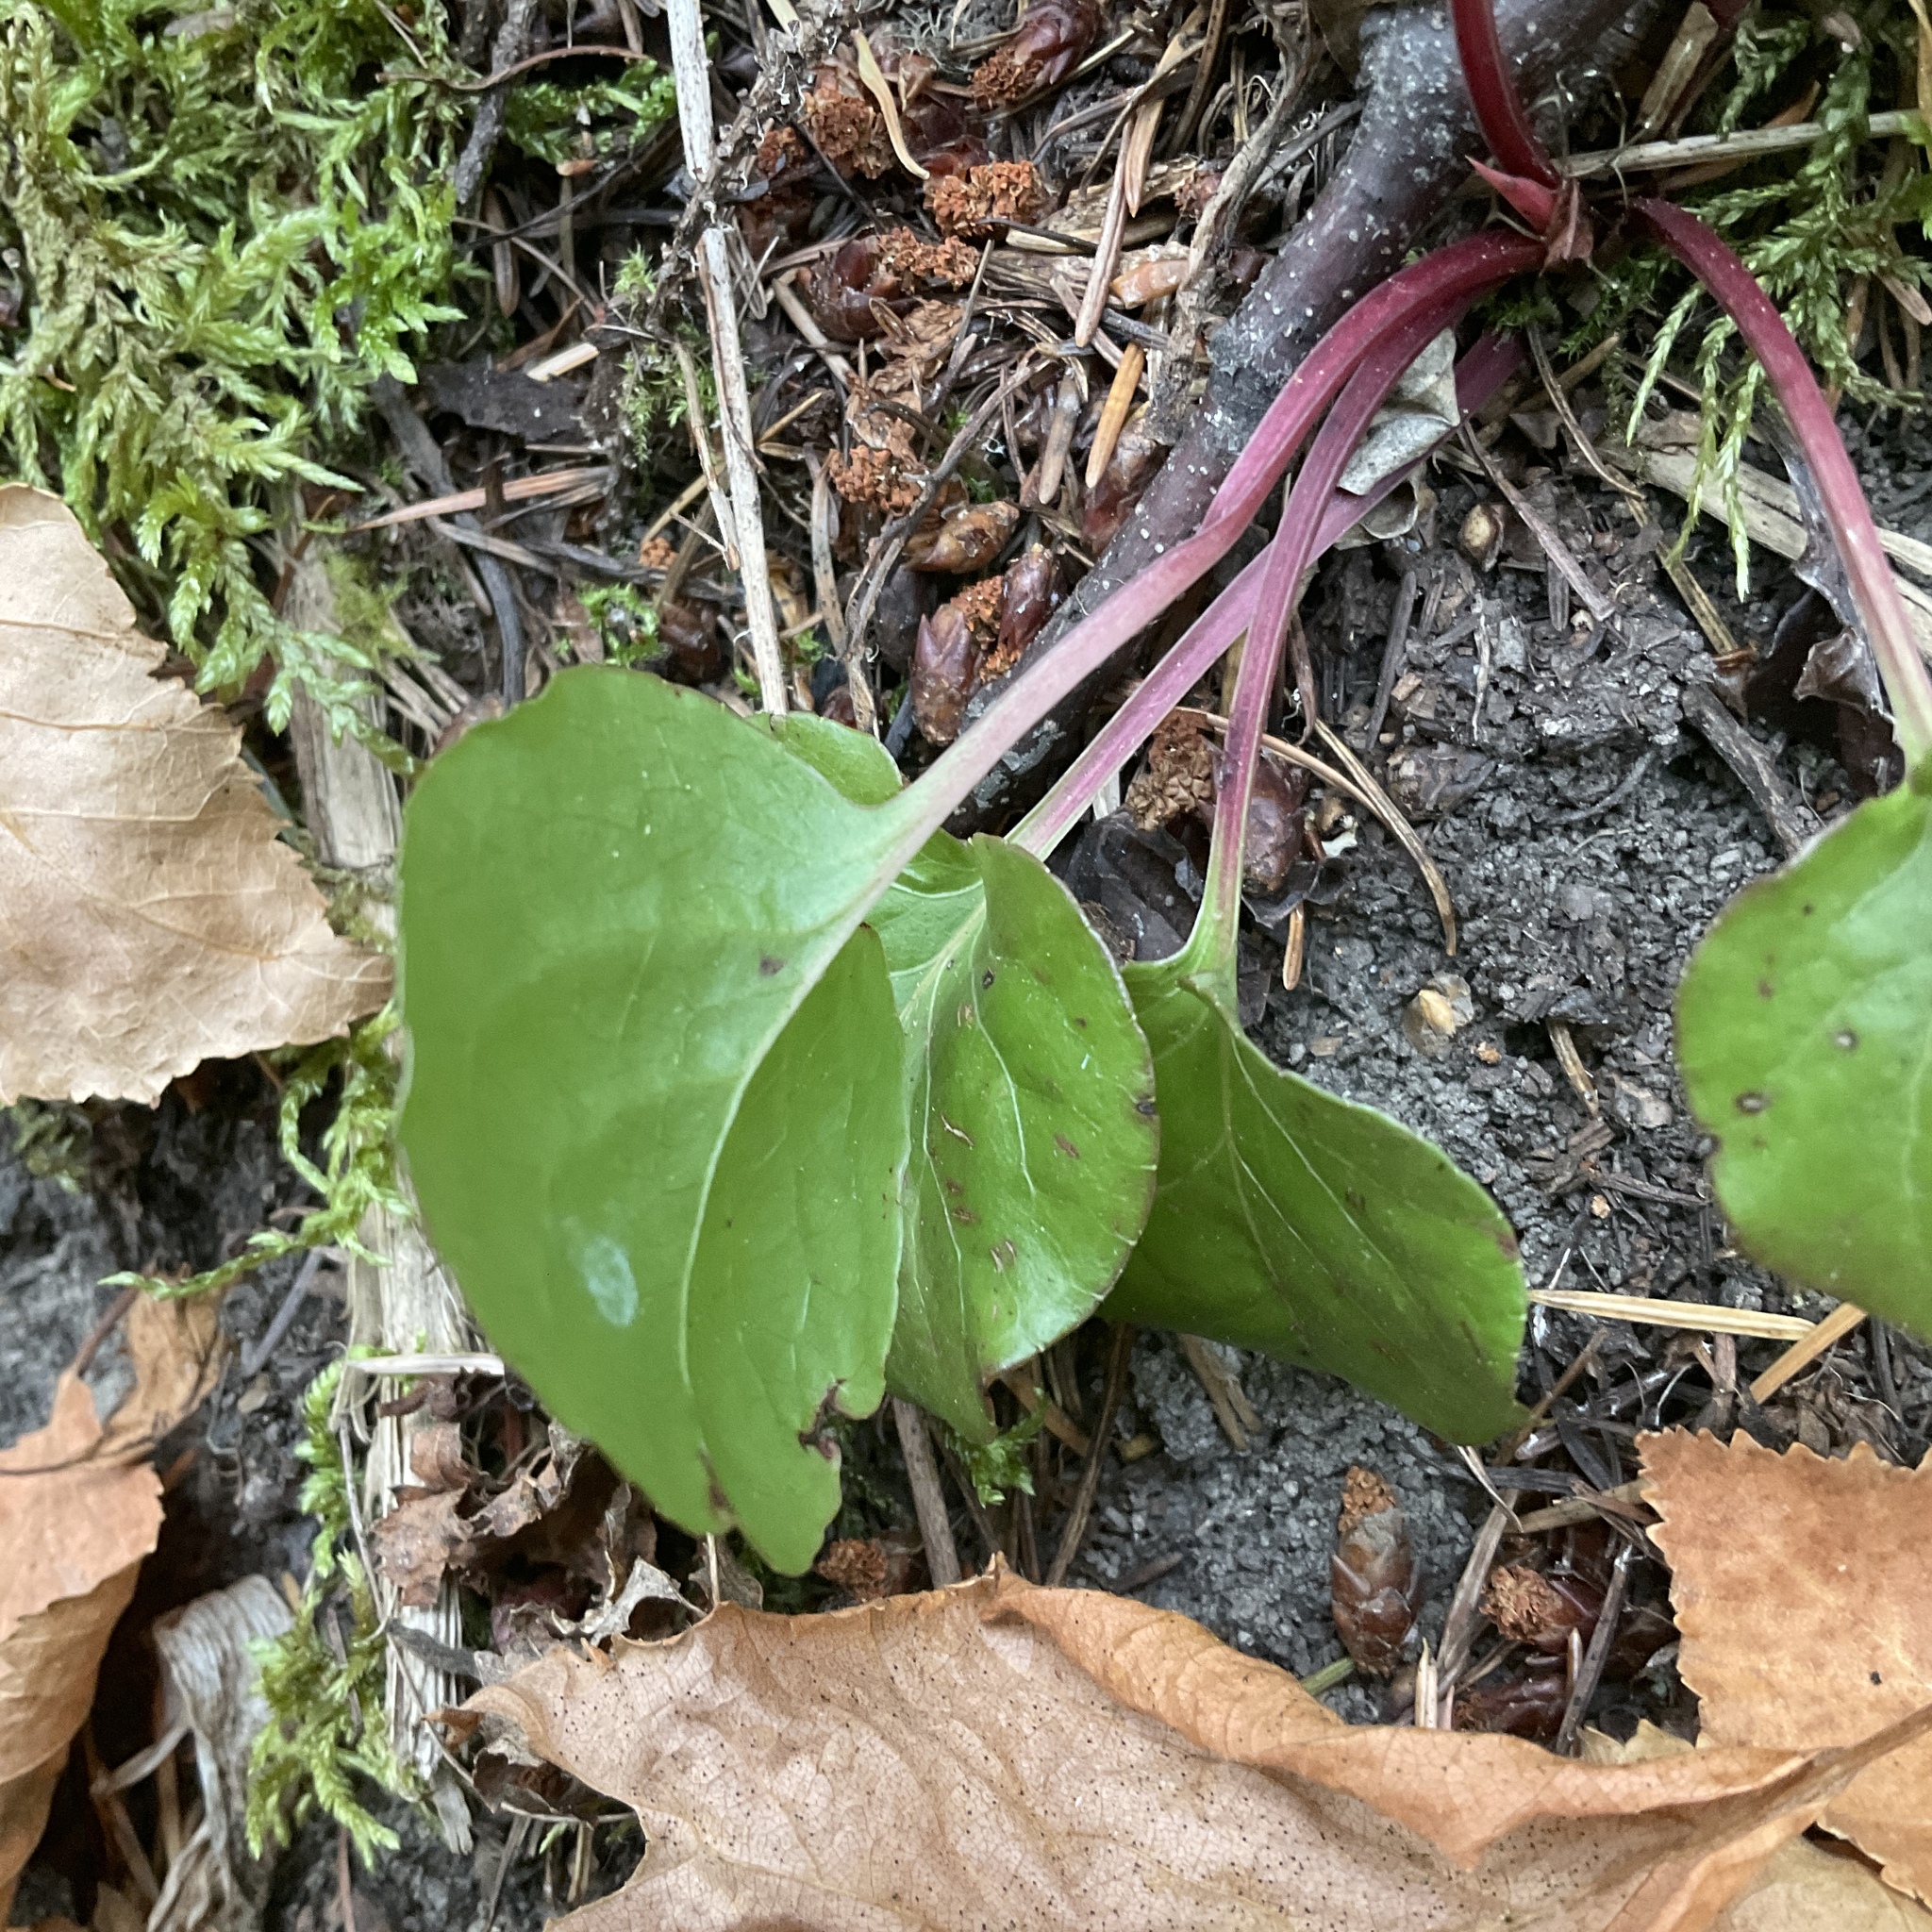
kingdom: Plantae
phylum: Tracheophyta
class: Magnoliopsida
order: Ericales
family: Ericaceae
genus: Pyrola
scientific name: Pyrola asarifolia
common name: Bog wintergreen
